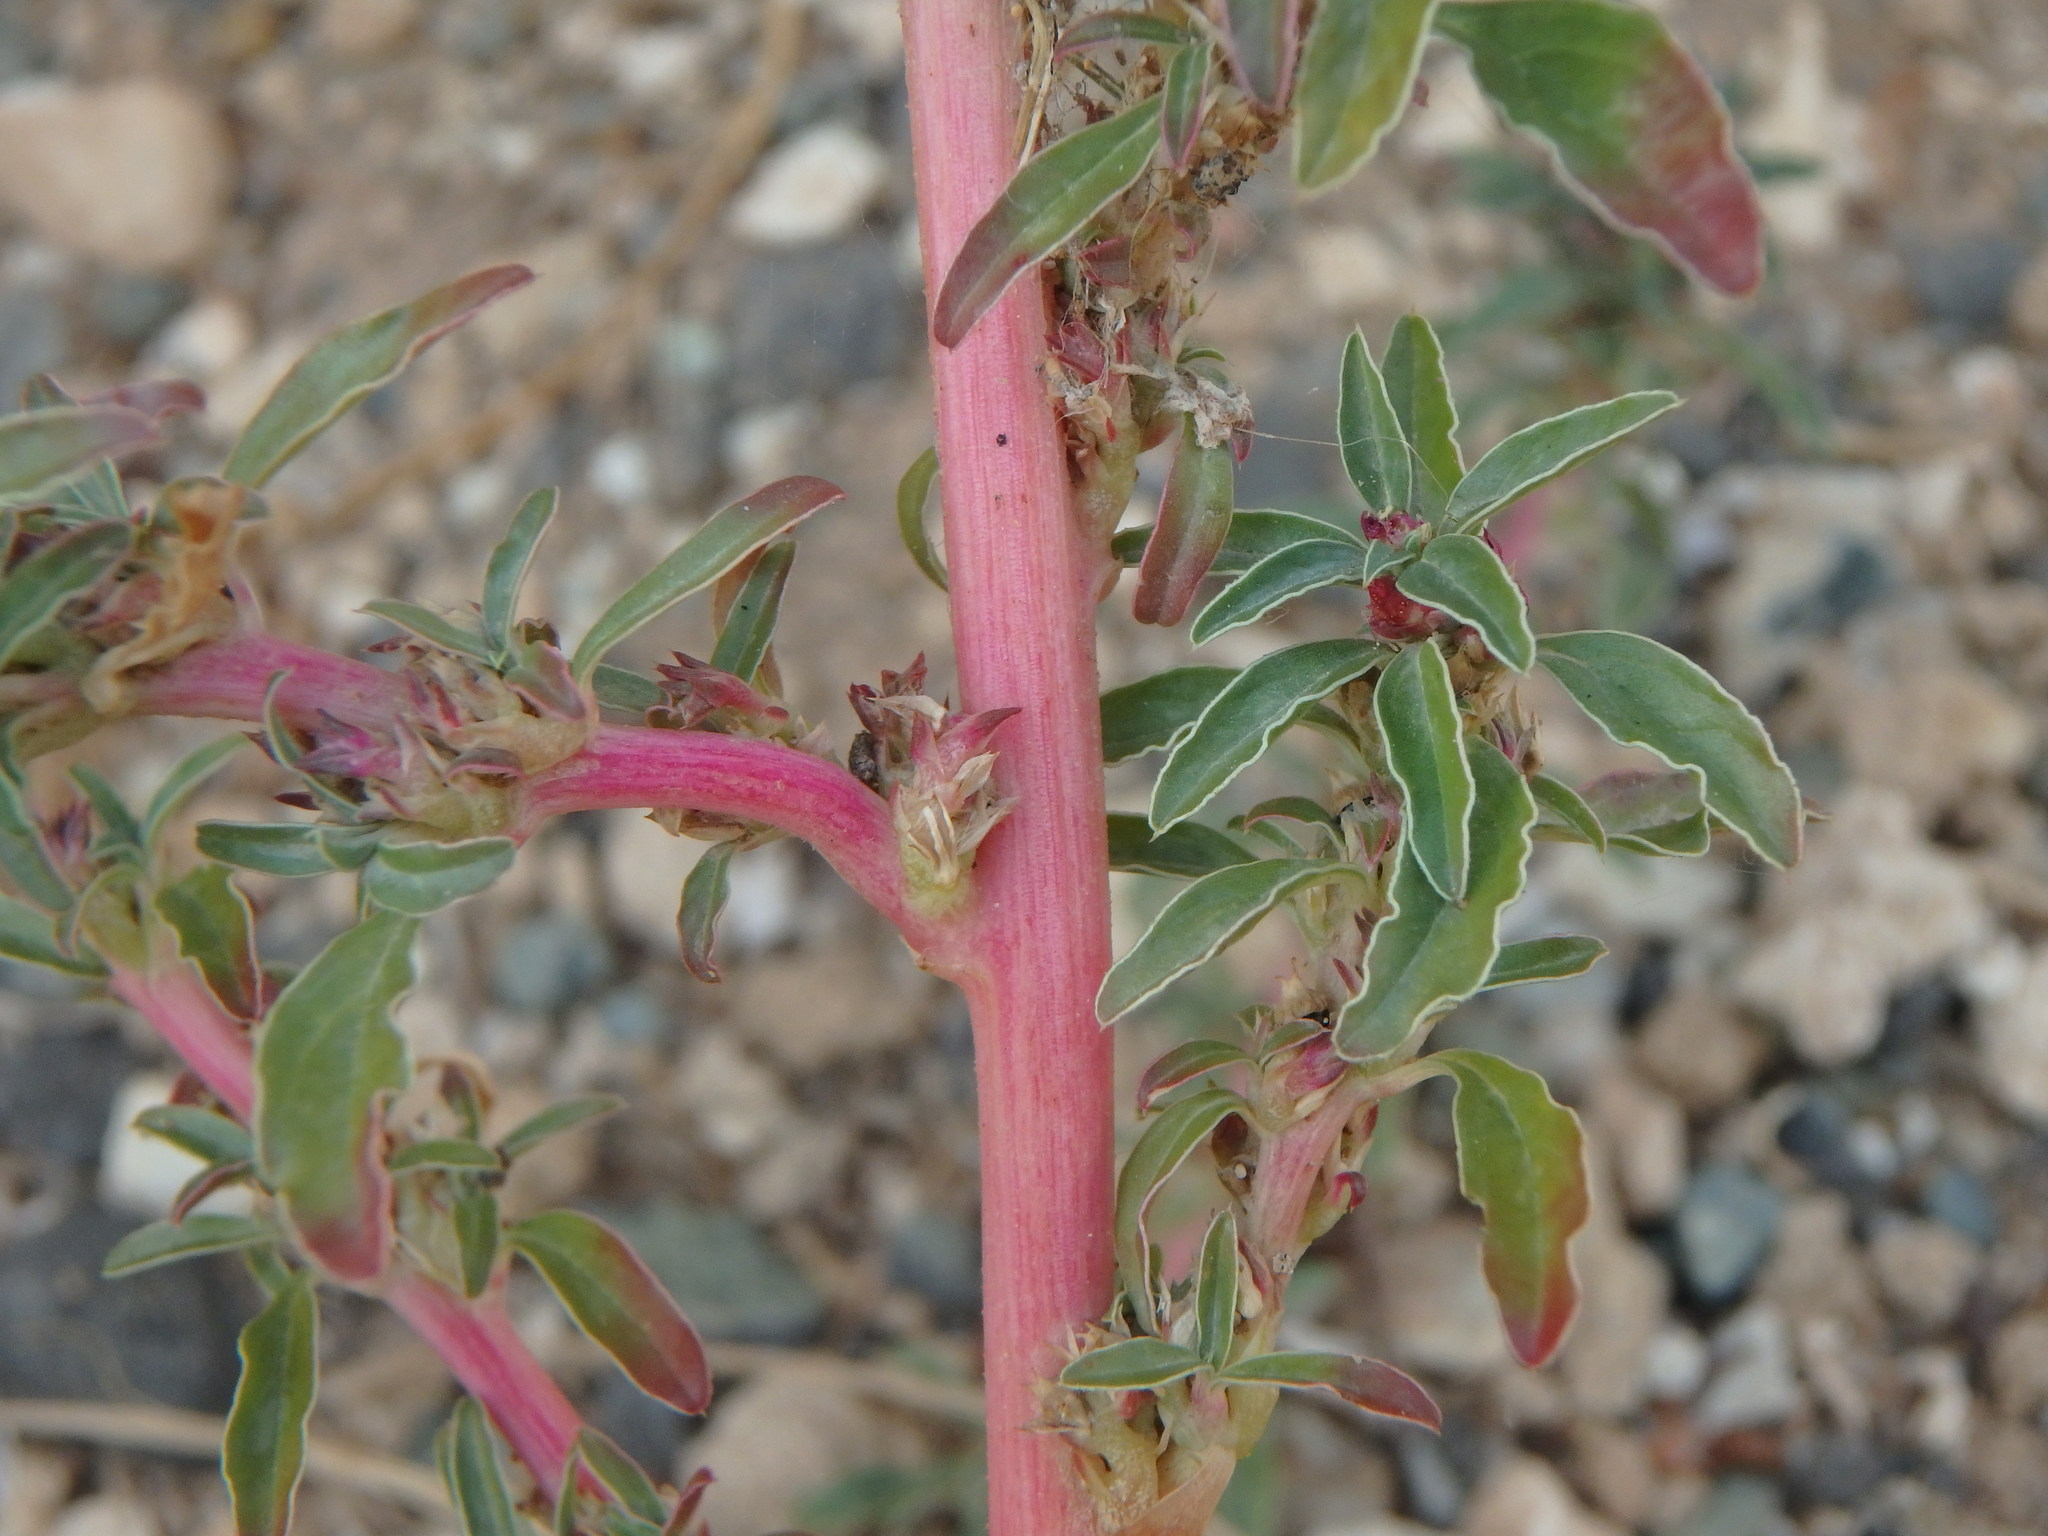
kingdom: Plantae
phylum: Tracheophyta
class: Magnoliopsida
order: Caryophyllales
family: Amaranthaceae
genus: Amaranthus
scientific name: Amaranthus blitoides
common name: Prostrate pigweed
